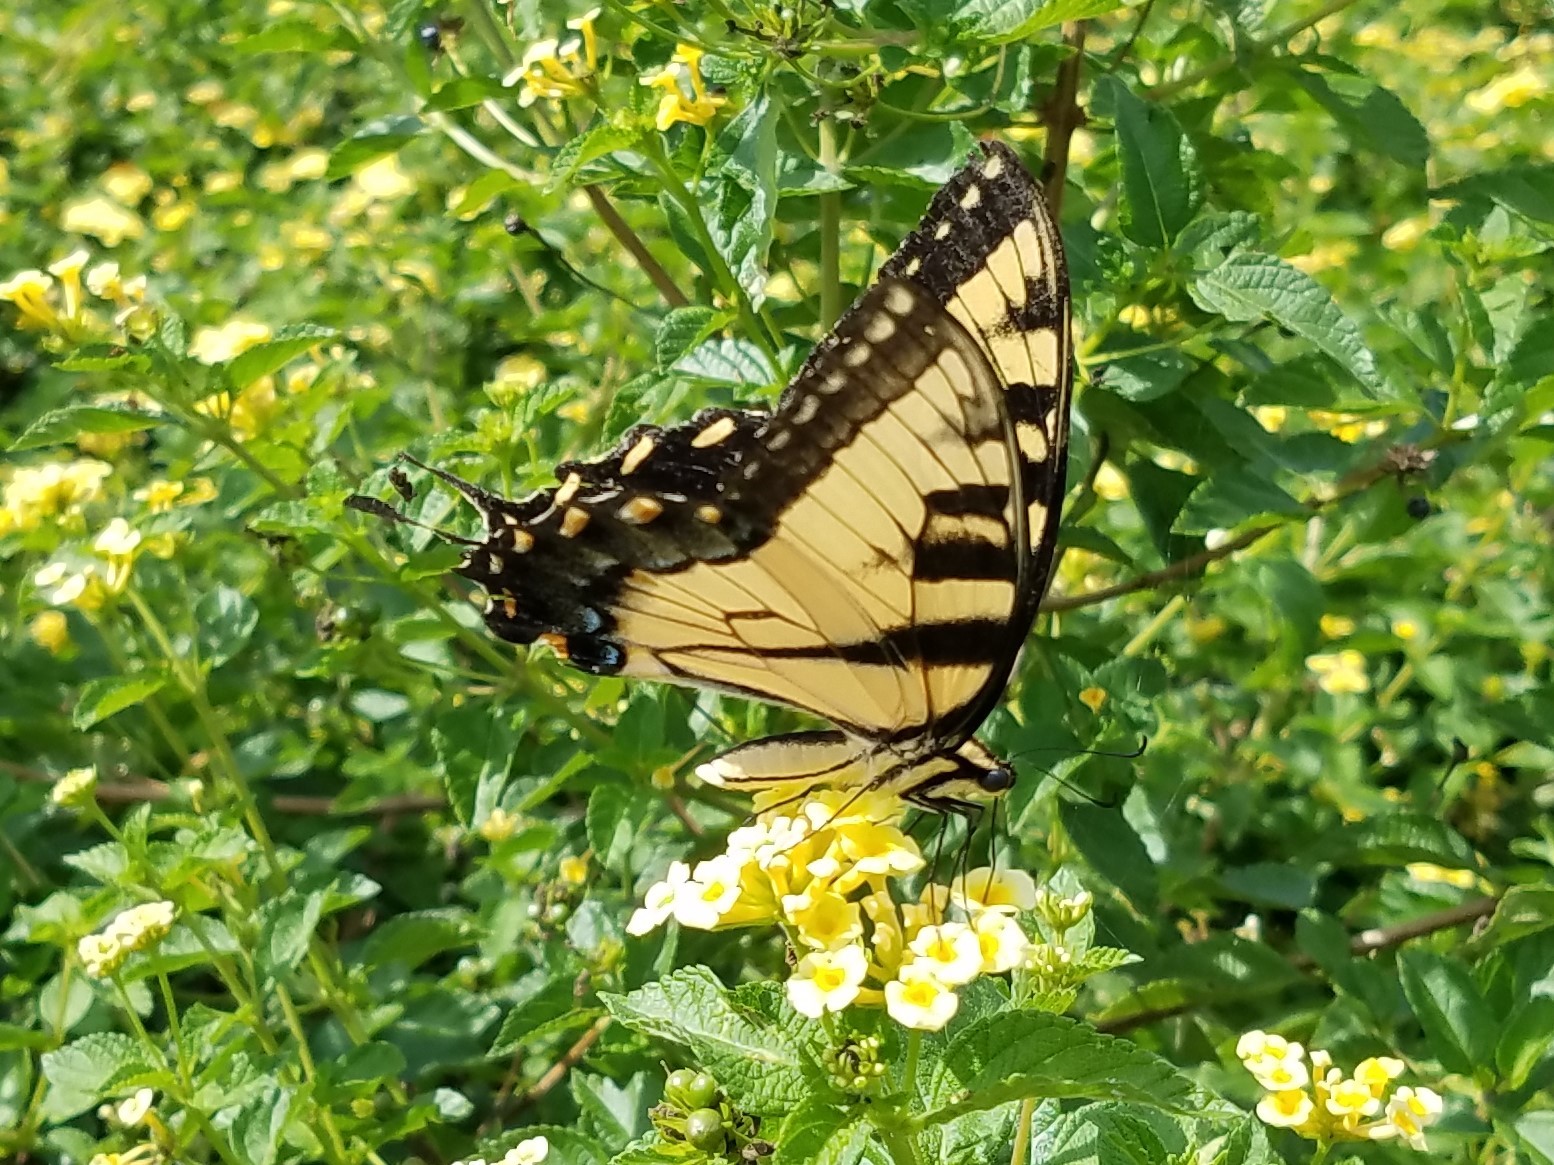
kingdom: Animalia
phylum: Arthropoda
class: Insecta
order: Lepidoptera
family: Papilionidae
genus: Papilio
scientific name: Papilio glaucus
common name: Tiger swallowtail
